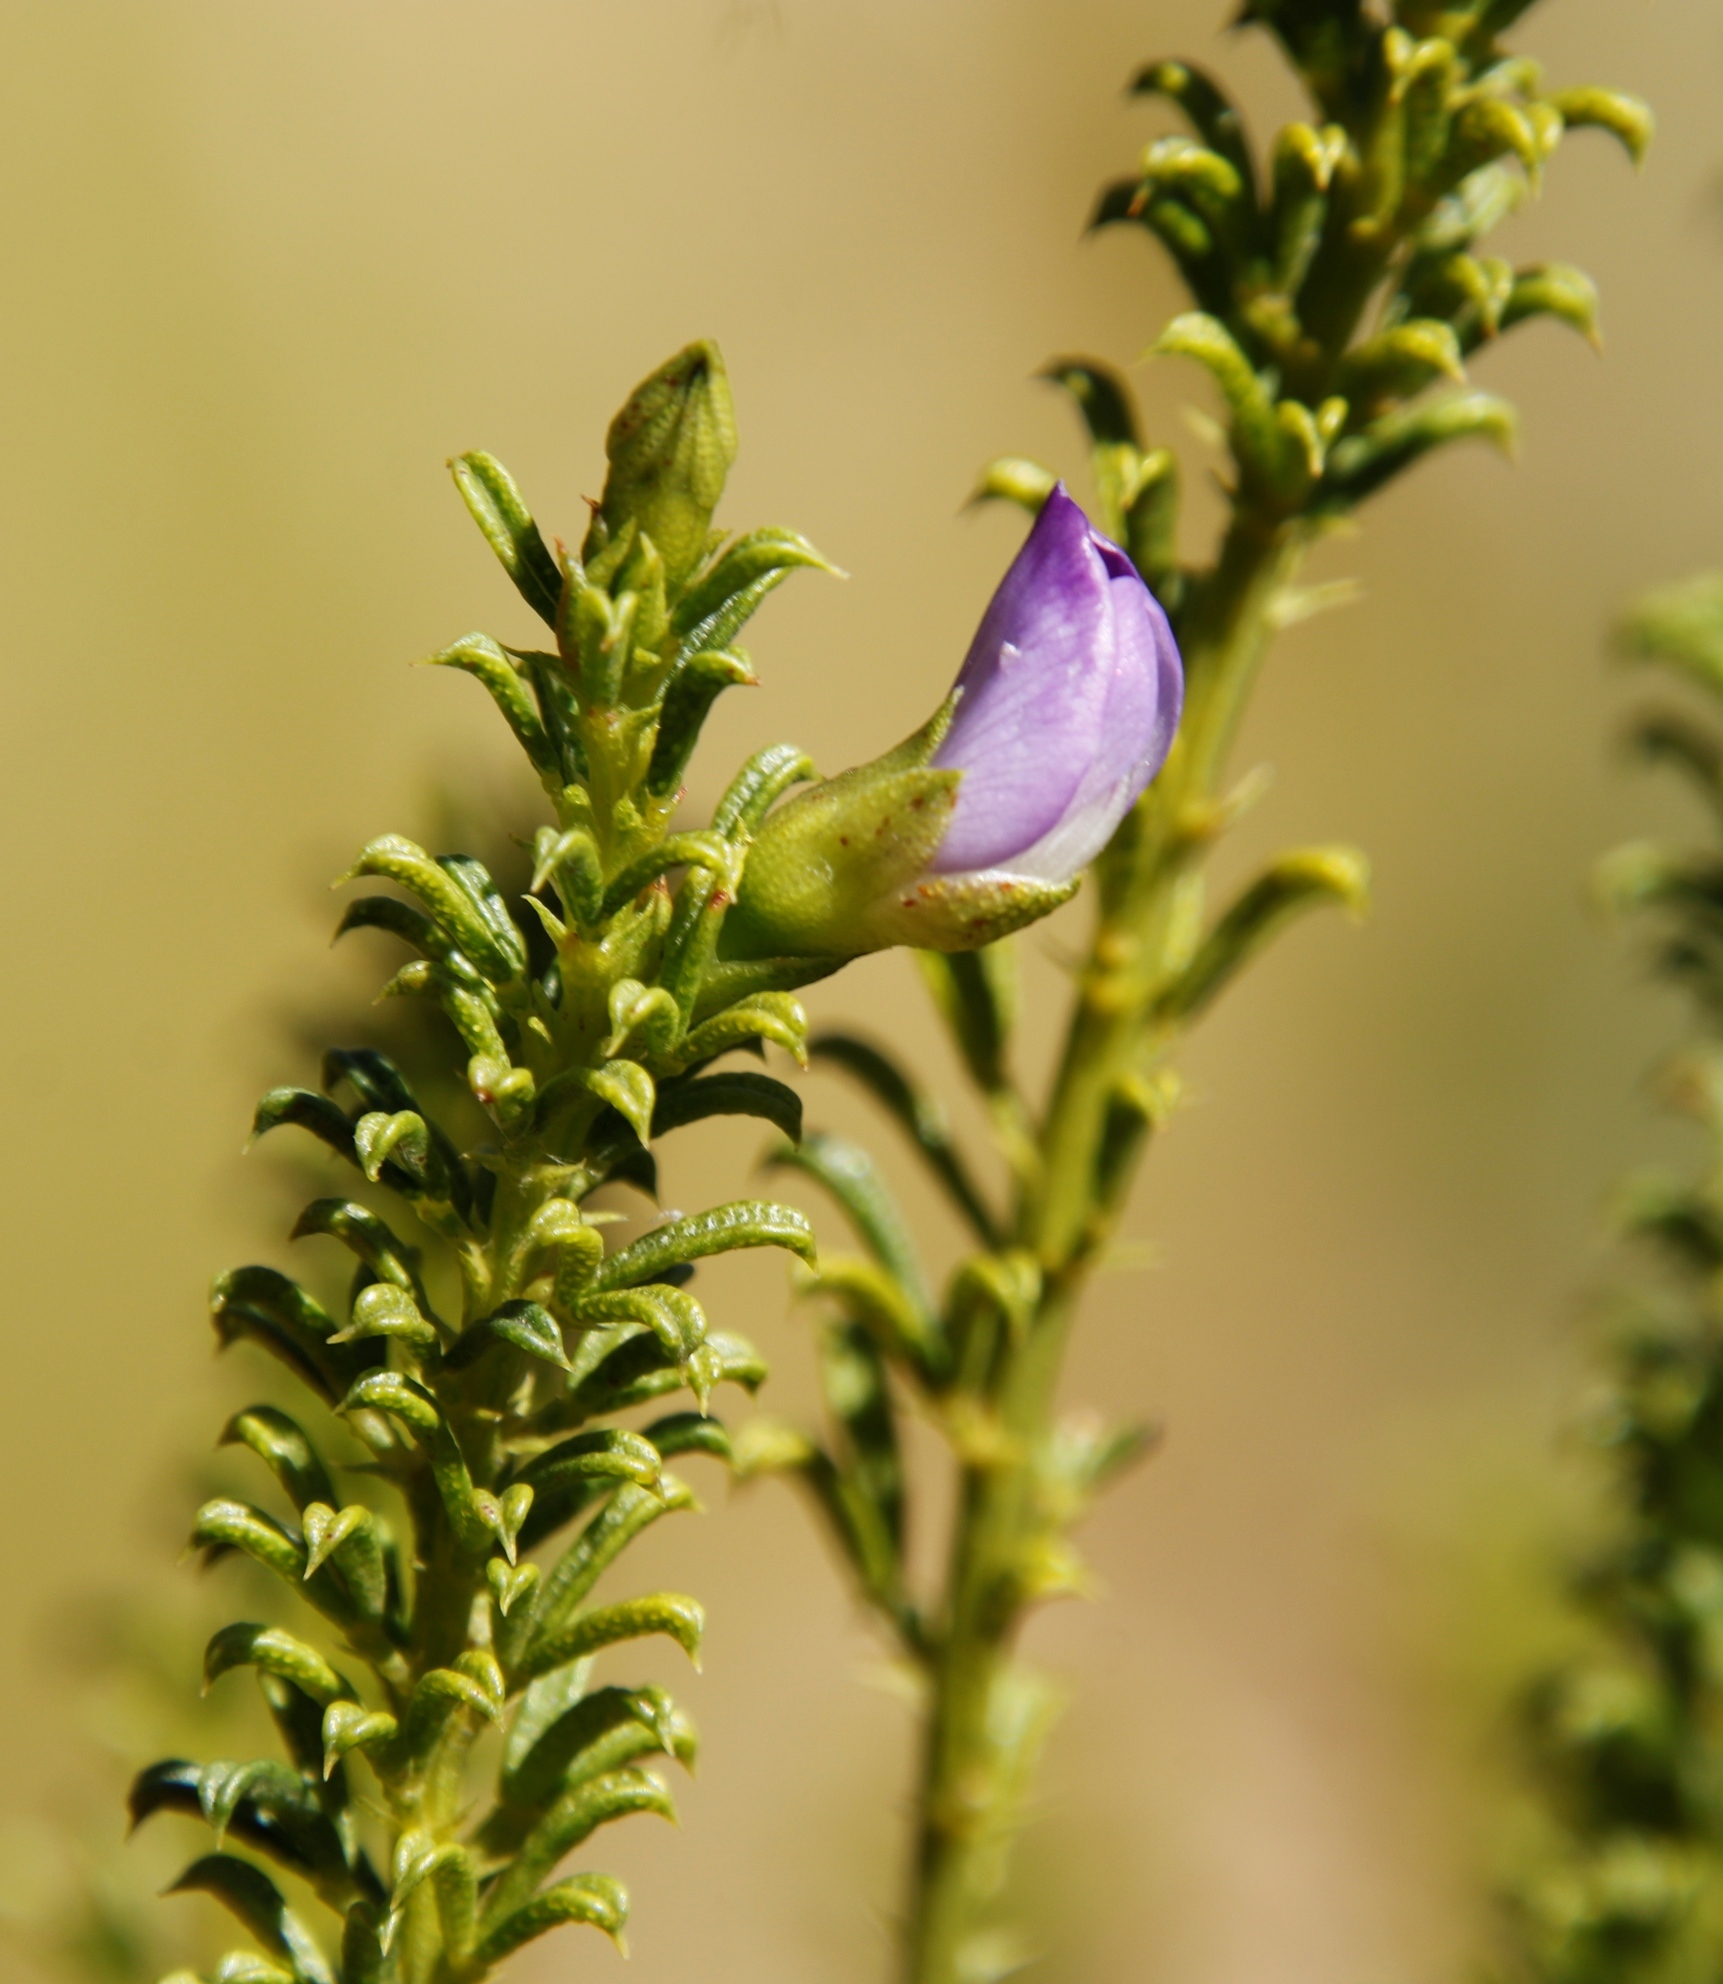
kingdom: Plantae
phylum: Tracheophyta
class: Magnoliopsida
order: Fabales
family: Fabaceae
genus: Psoralea
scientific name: Psoralea aculeata
